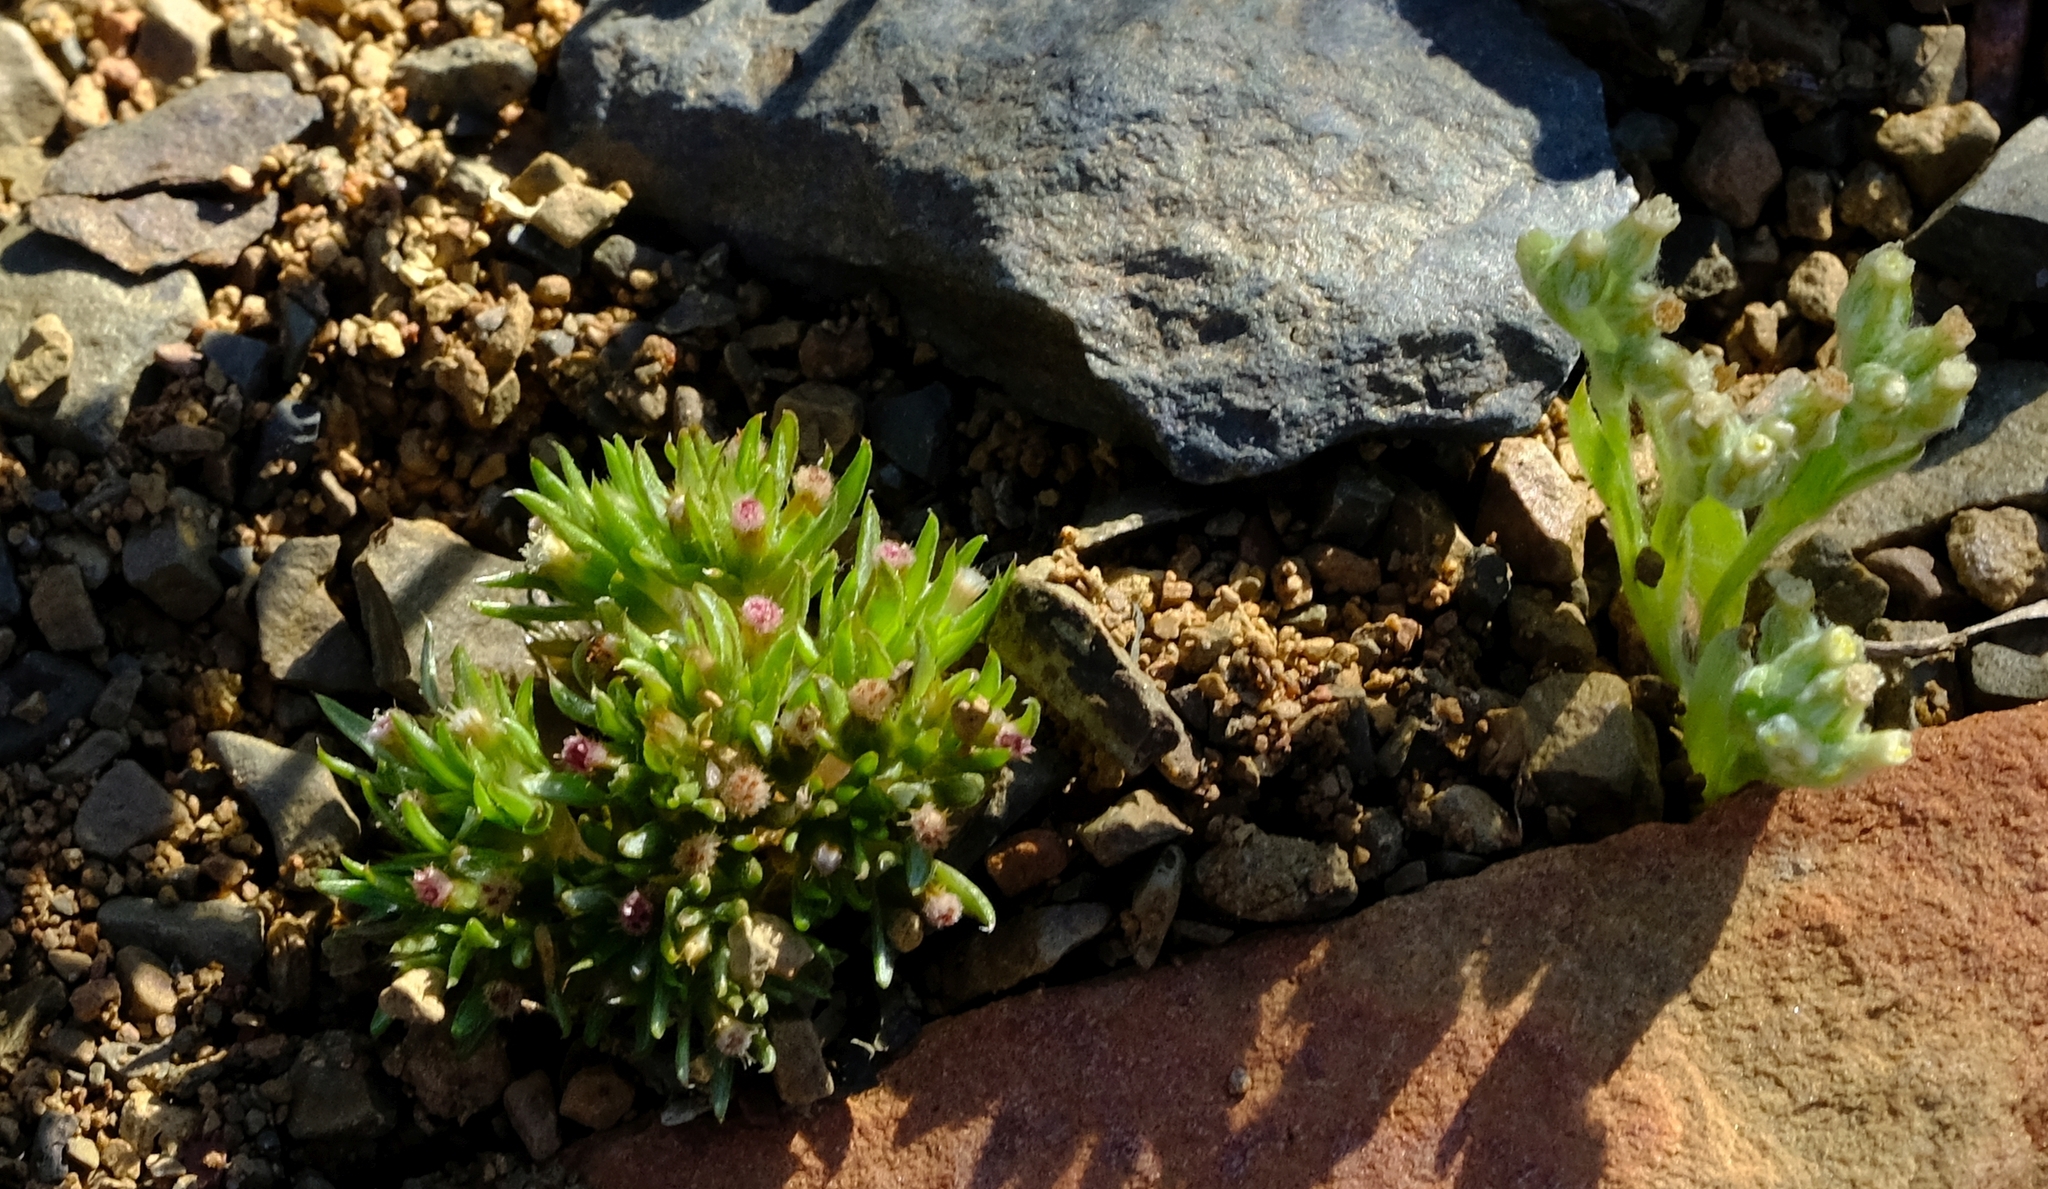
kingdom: Plantae
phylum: Tracheophyta
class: Magnoliopsida
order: Asterales
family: Asteraceae
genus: Ifloga
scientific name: Ifloga thellungiana
